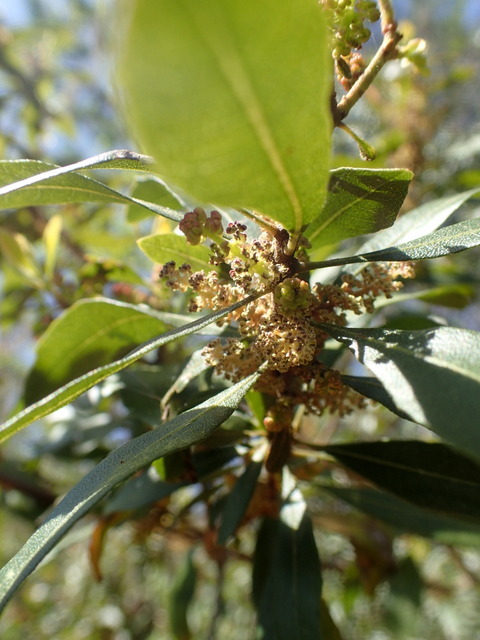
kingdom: Plantae
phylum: Tracheophyta
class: Magnoliopsida
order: Fagales
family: Myricaceae
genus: Morella
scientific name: Morella cerifera
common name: Wax myrtle
